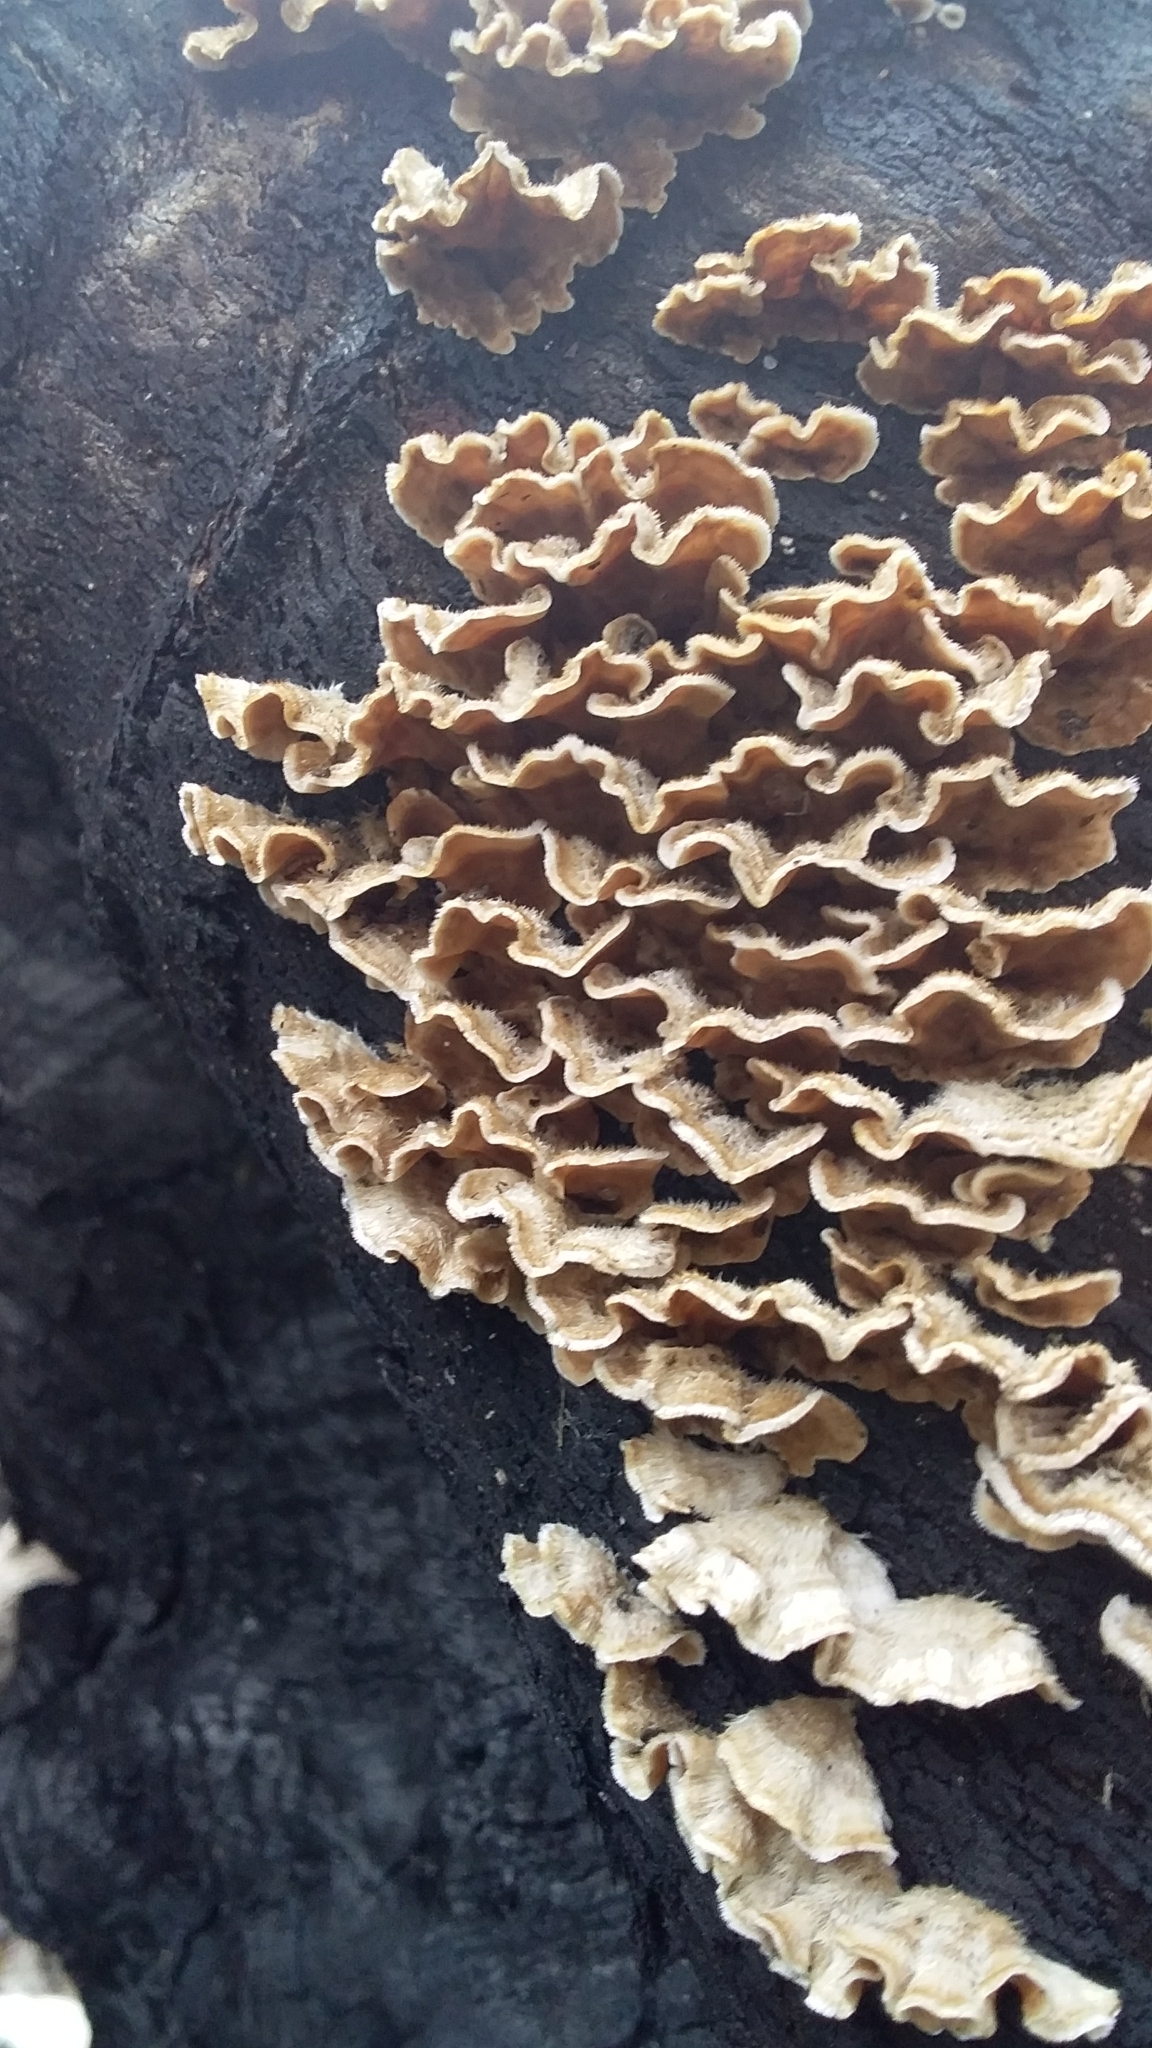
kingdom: Fungi
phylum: Basidiomycota
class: Agaricomycetes
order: Russulales
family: Stereaceae
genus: Stereum
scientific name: Stereum hirsutum
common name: Hairy curtain crust
